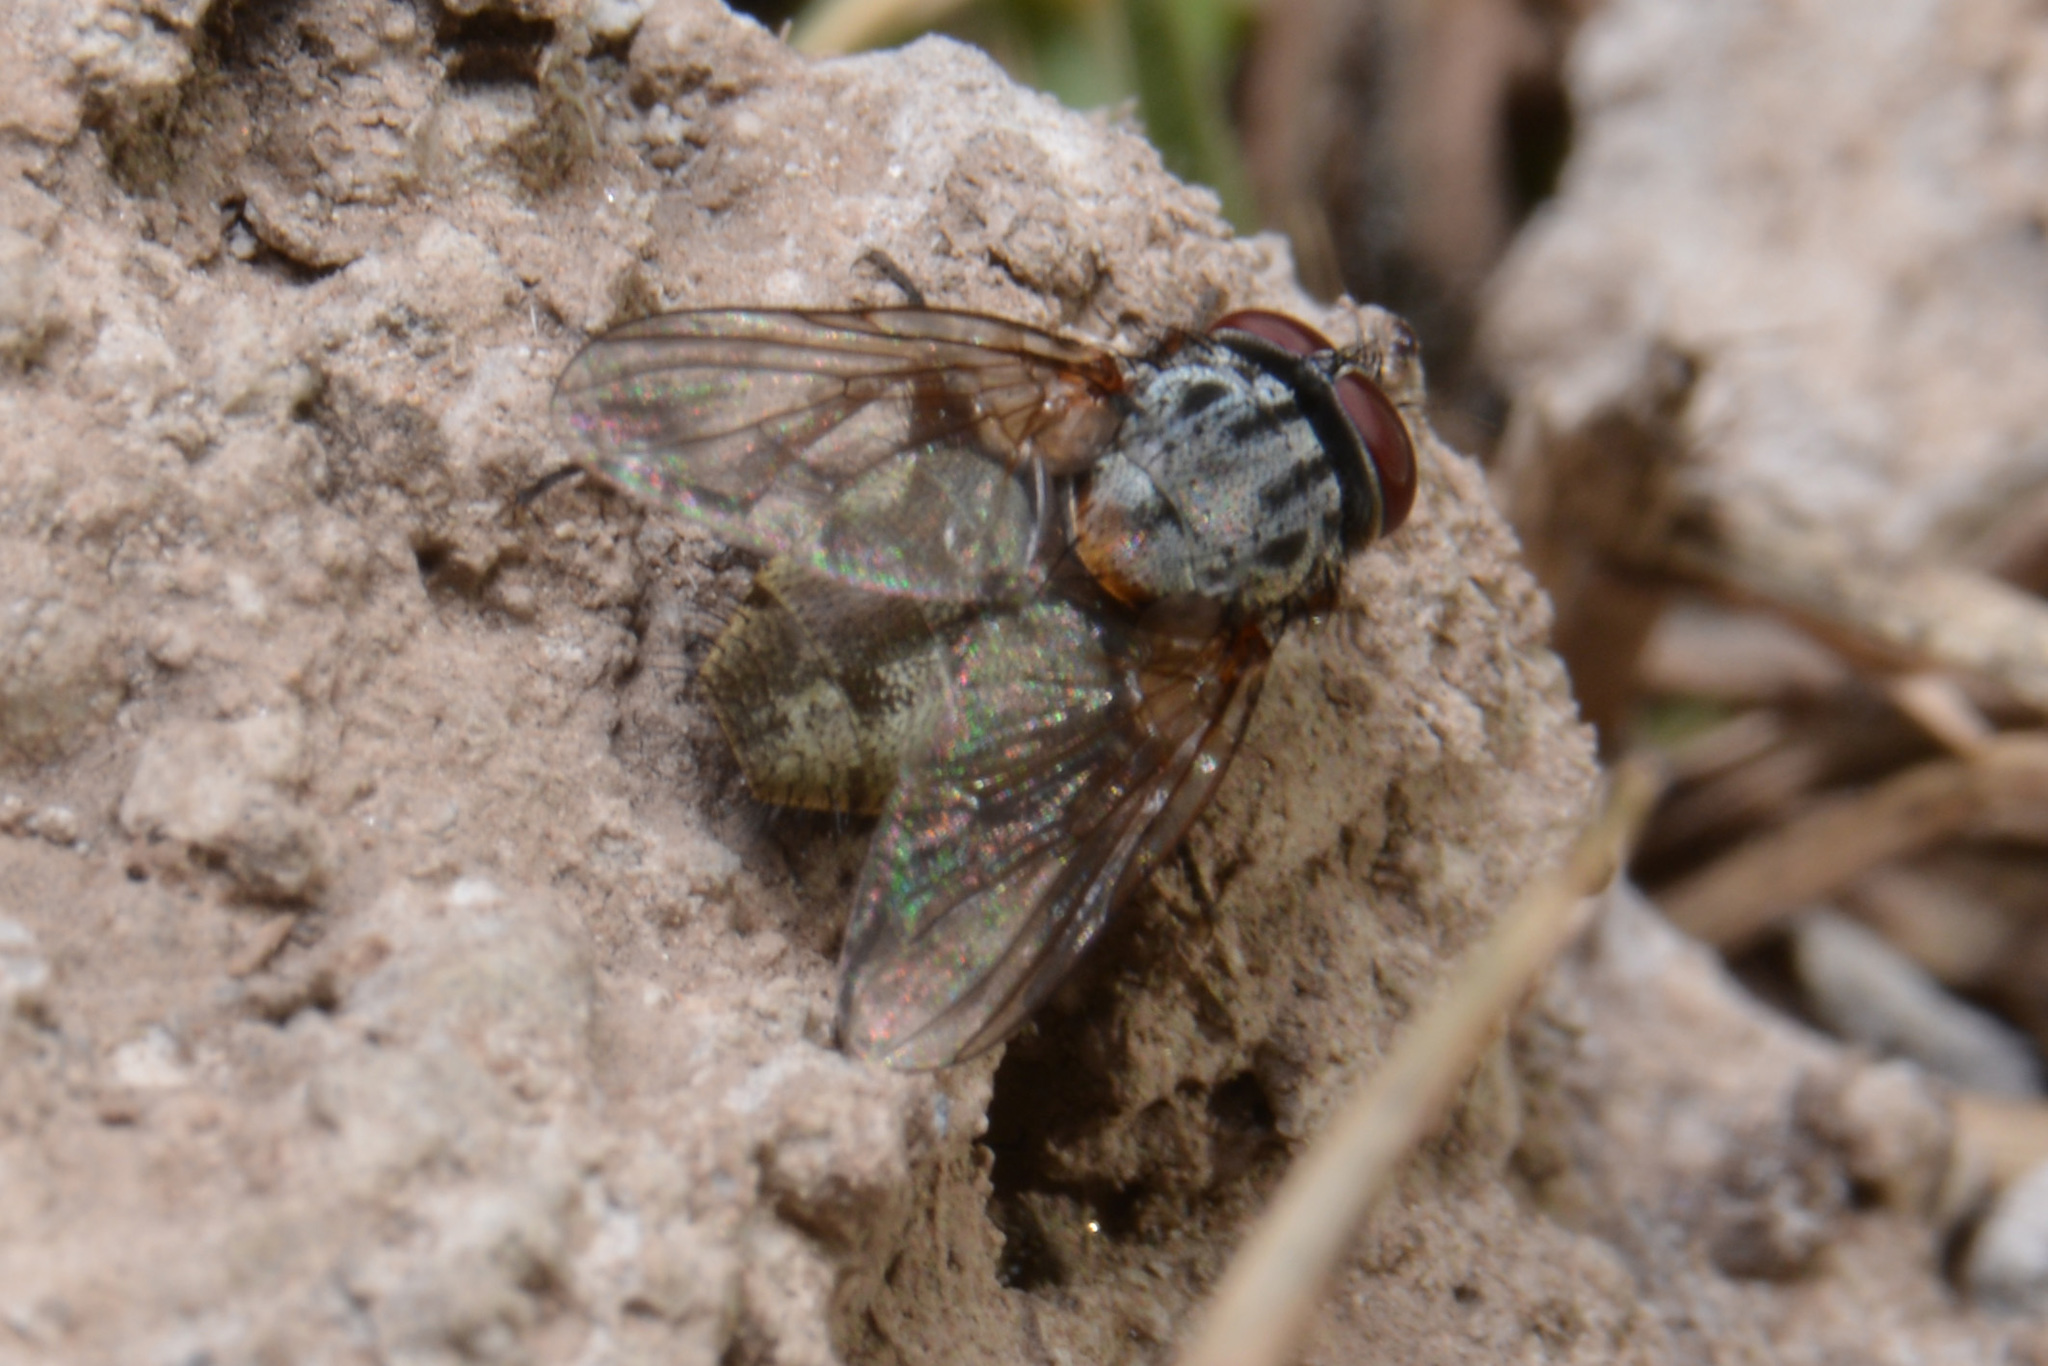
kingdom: Animalia
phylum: Arthropoda
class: Insecta
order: Diptera
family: Muscidae
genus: Muscina
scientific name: Muscina stabulans
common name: False stable fly
